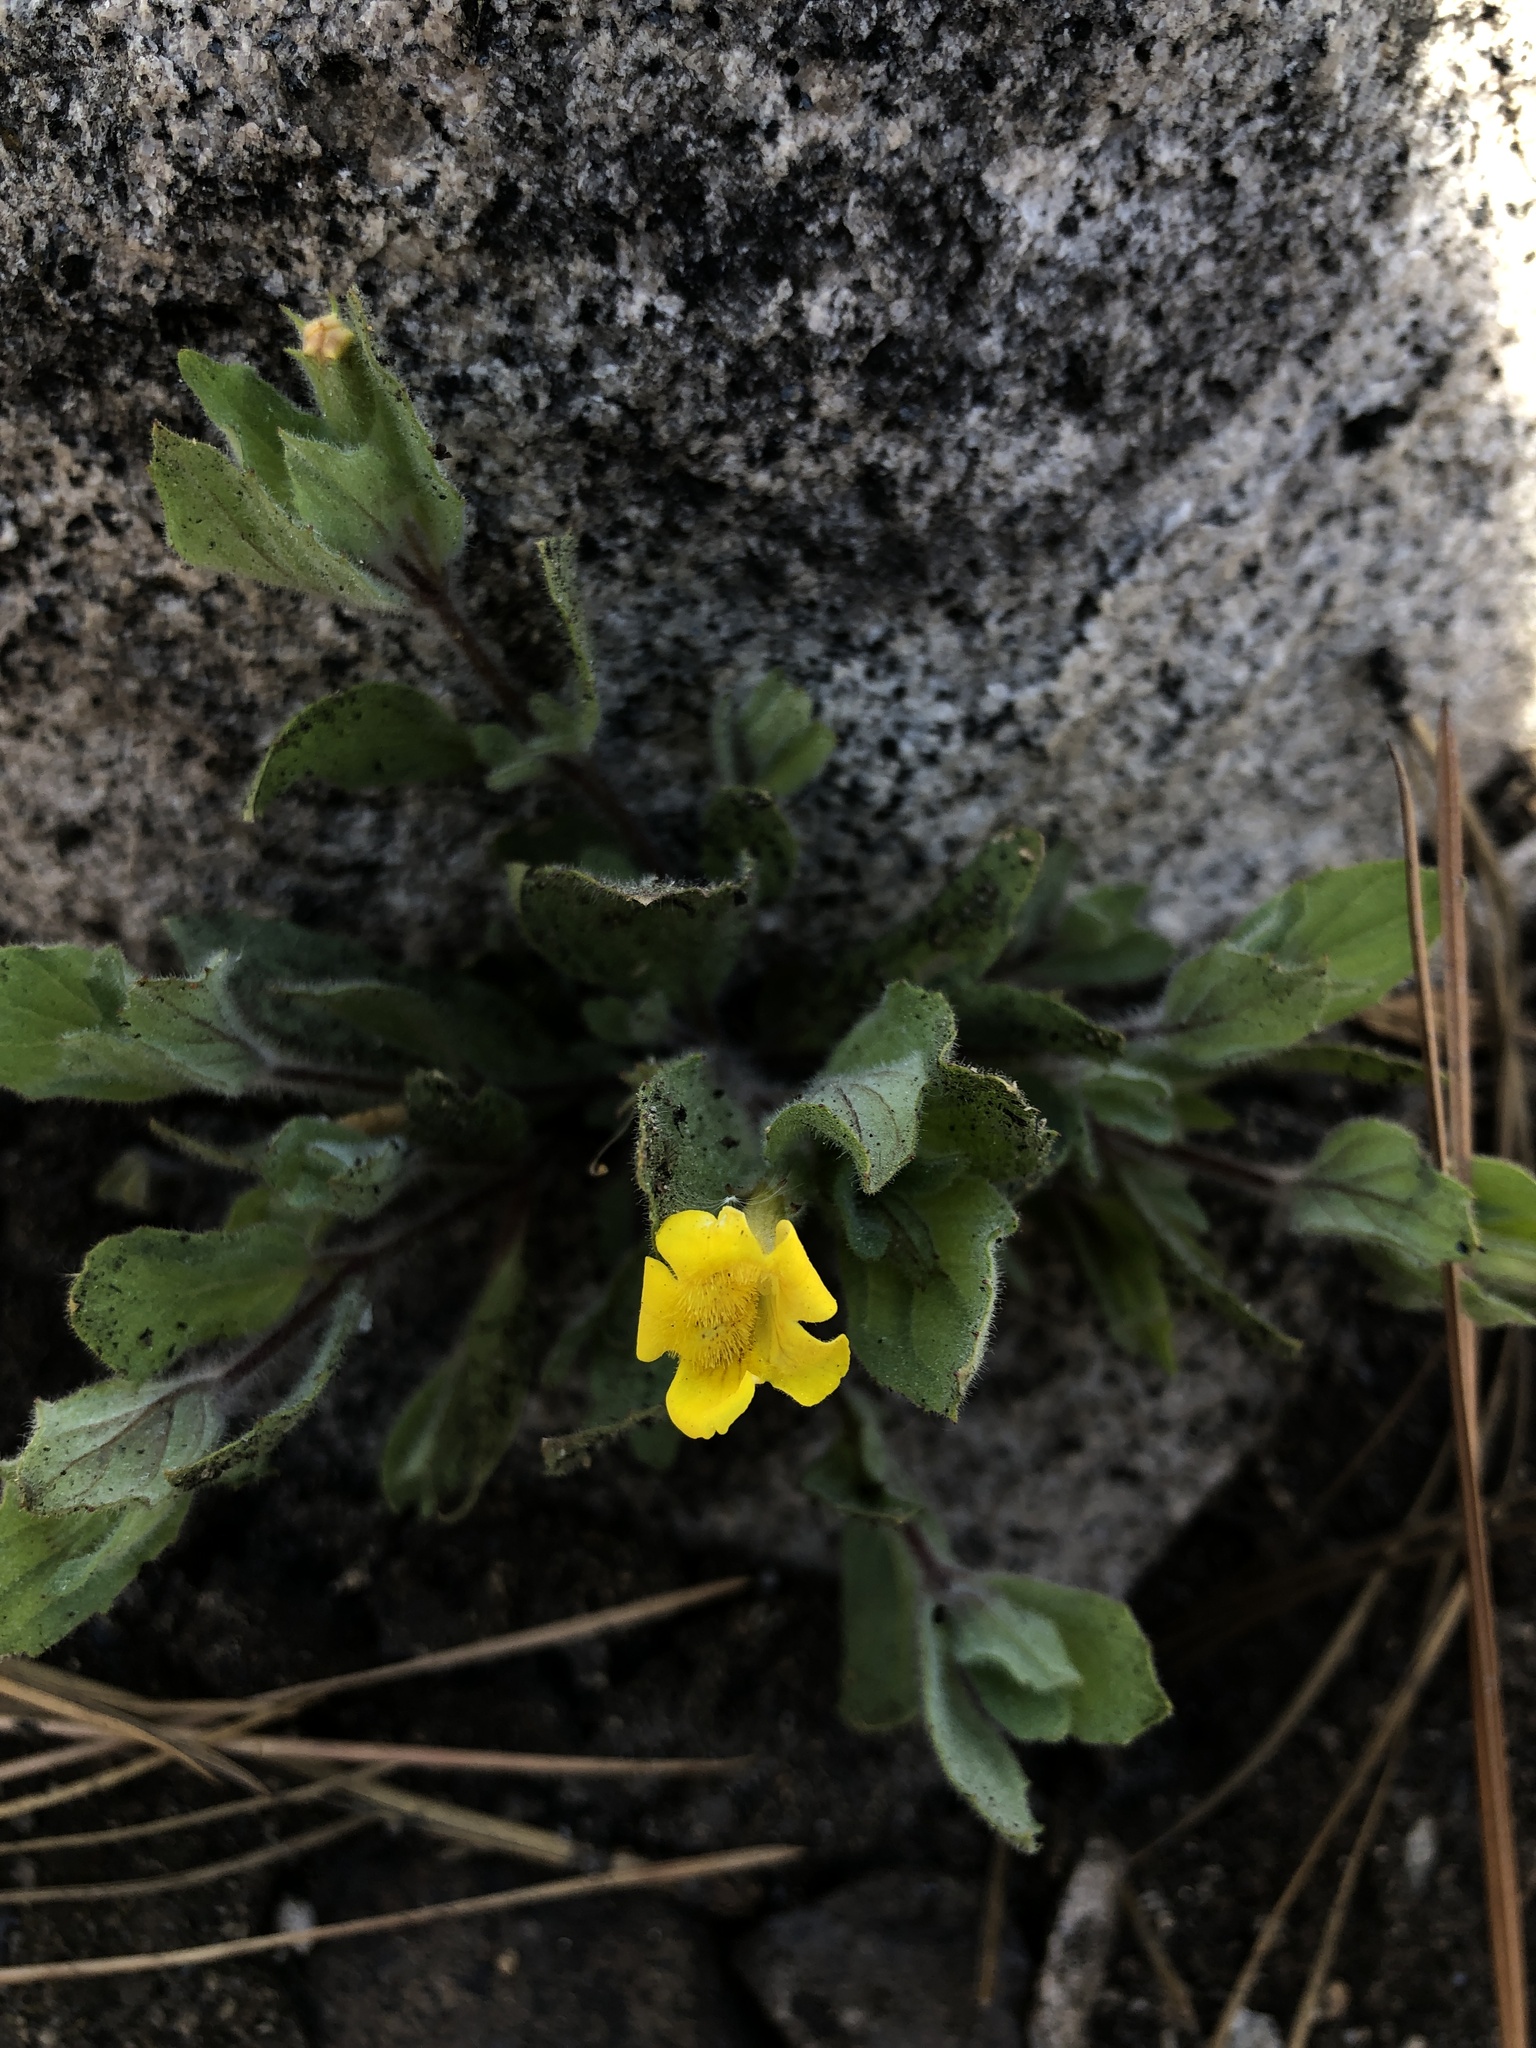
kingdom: Plantae
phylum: Tracheophyta
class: Magnoliopsida
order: Lamiales
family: Phrymaceae
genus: Erythranthe
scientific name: Erythranthe moschata
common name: Muskflower
